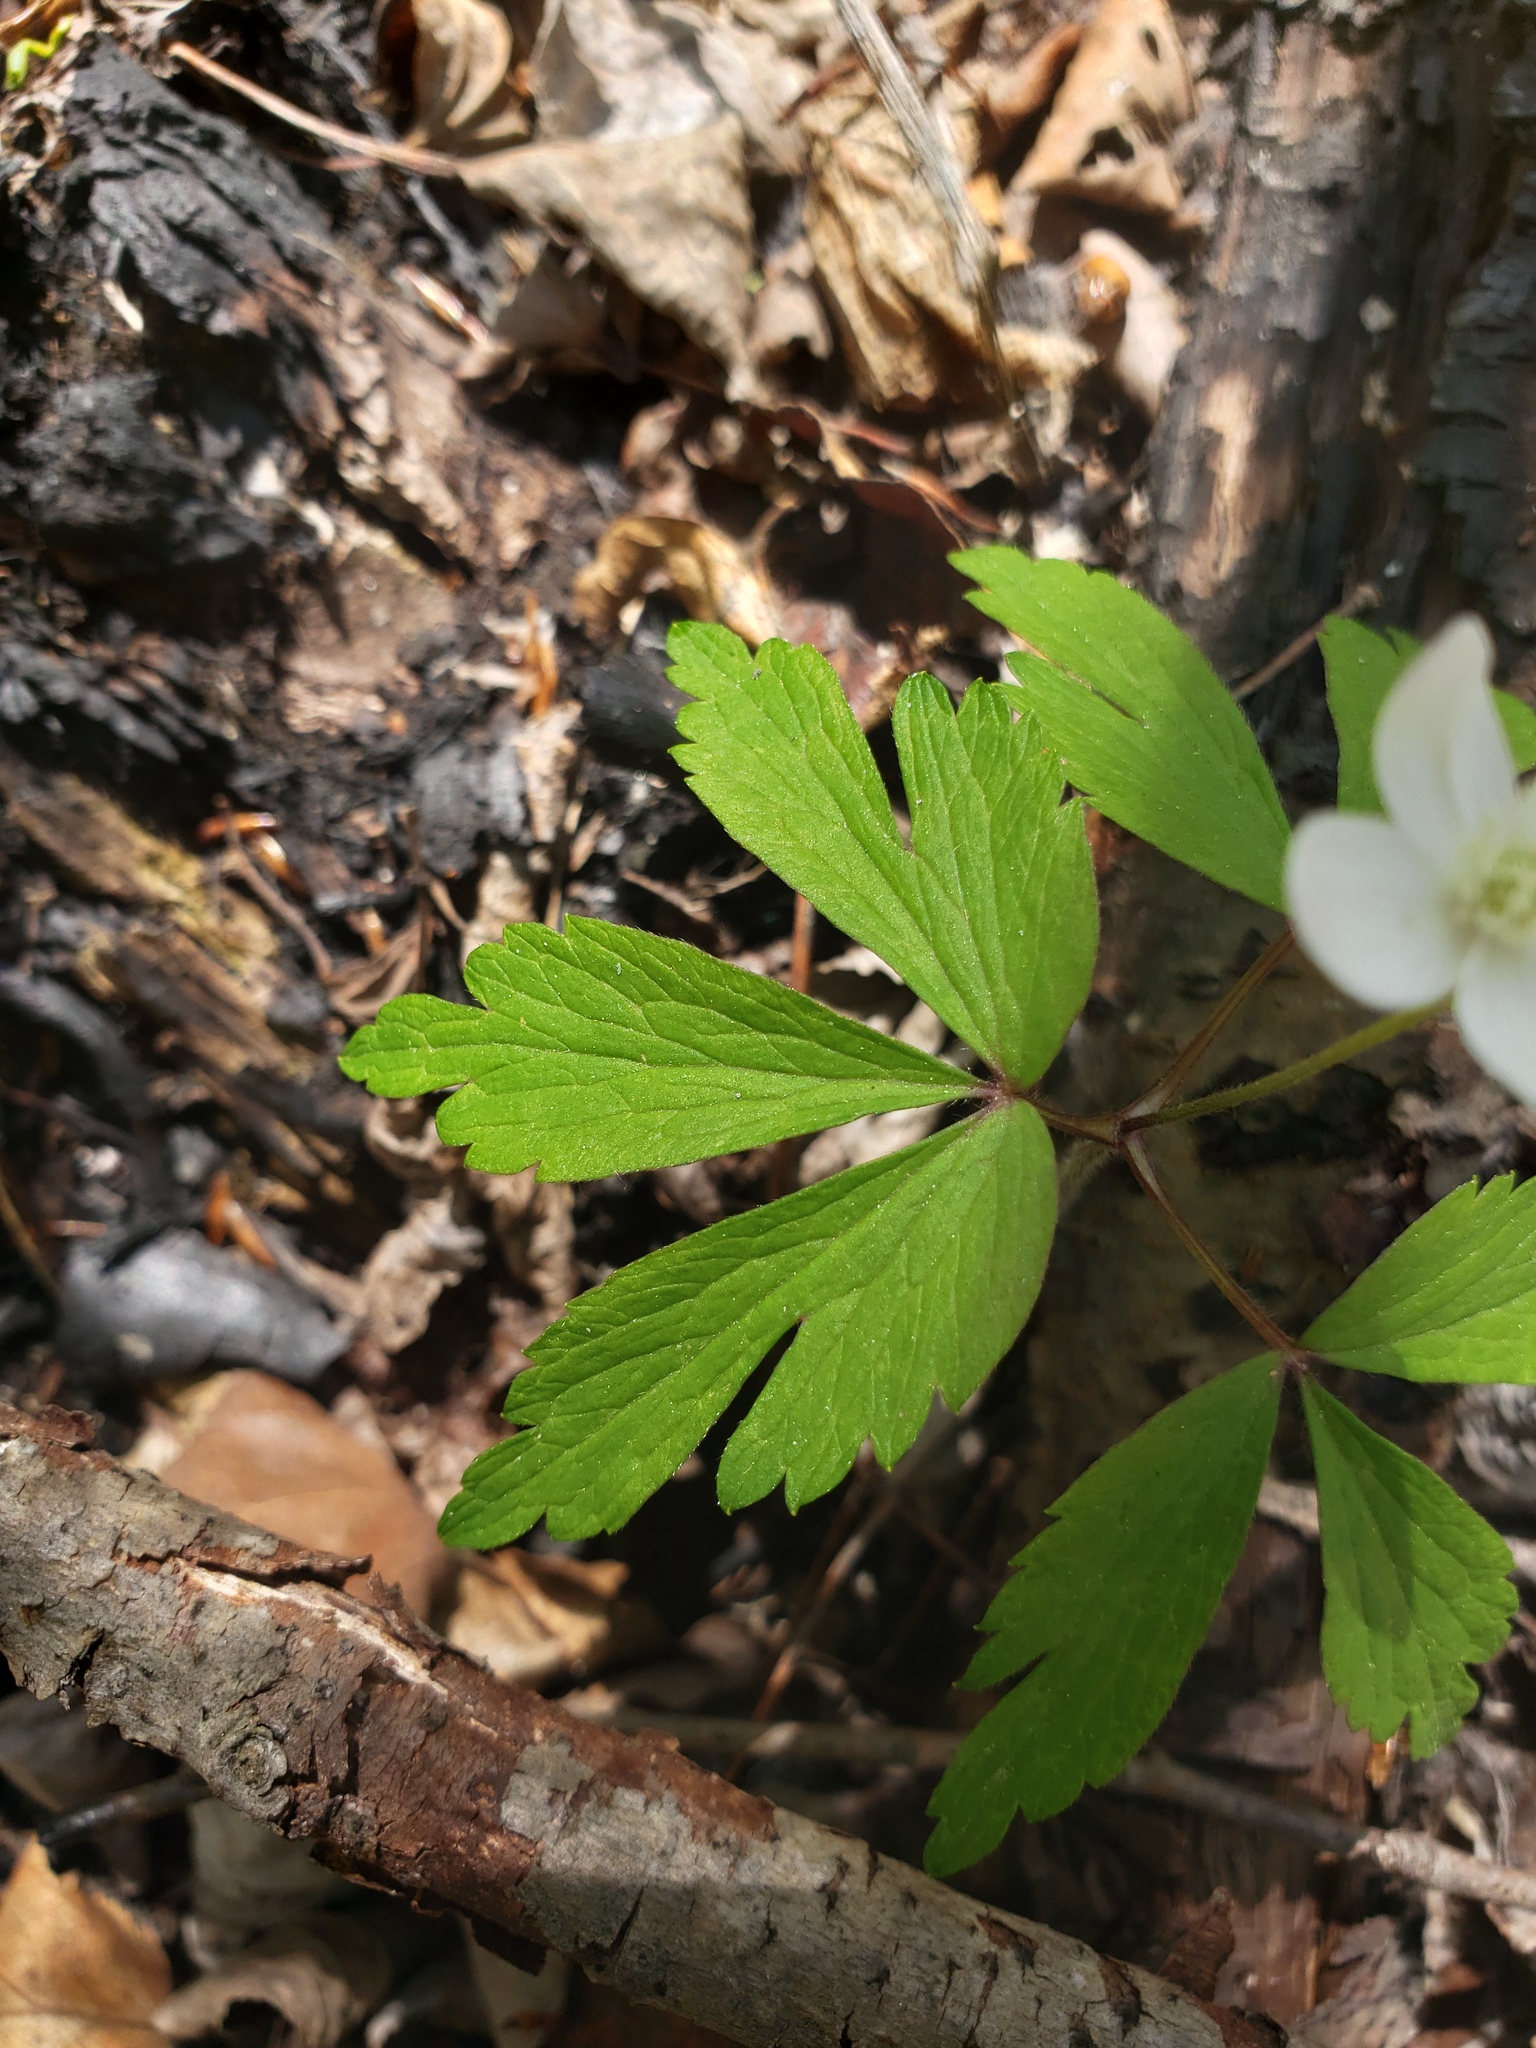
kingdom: Plantae
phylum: Tracheophyta
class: Magnoliopsida
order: Ranunculales
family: Ranunculaceae
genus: Anemone
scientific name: Anemone quinquefolia
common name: Wood anemone
